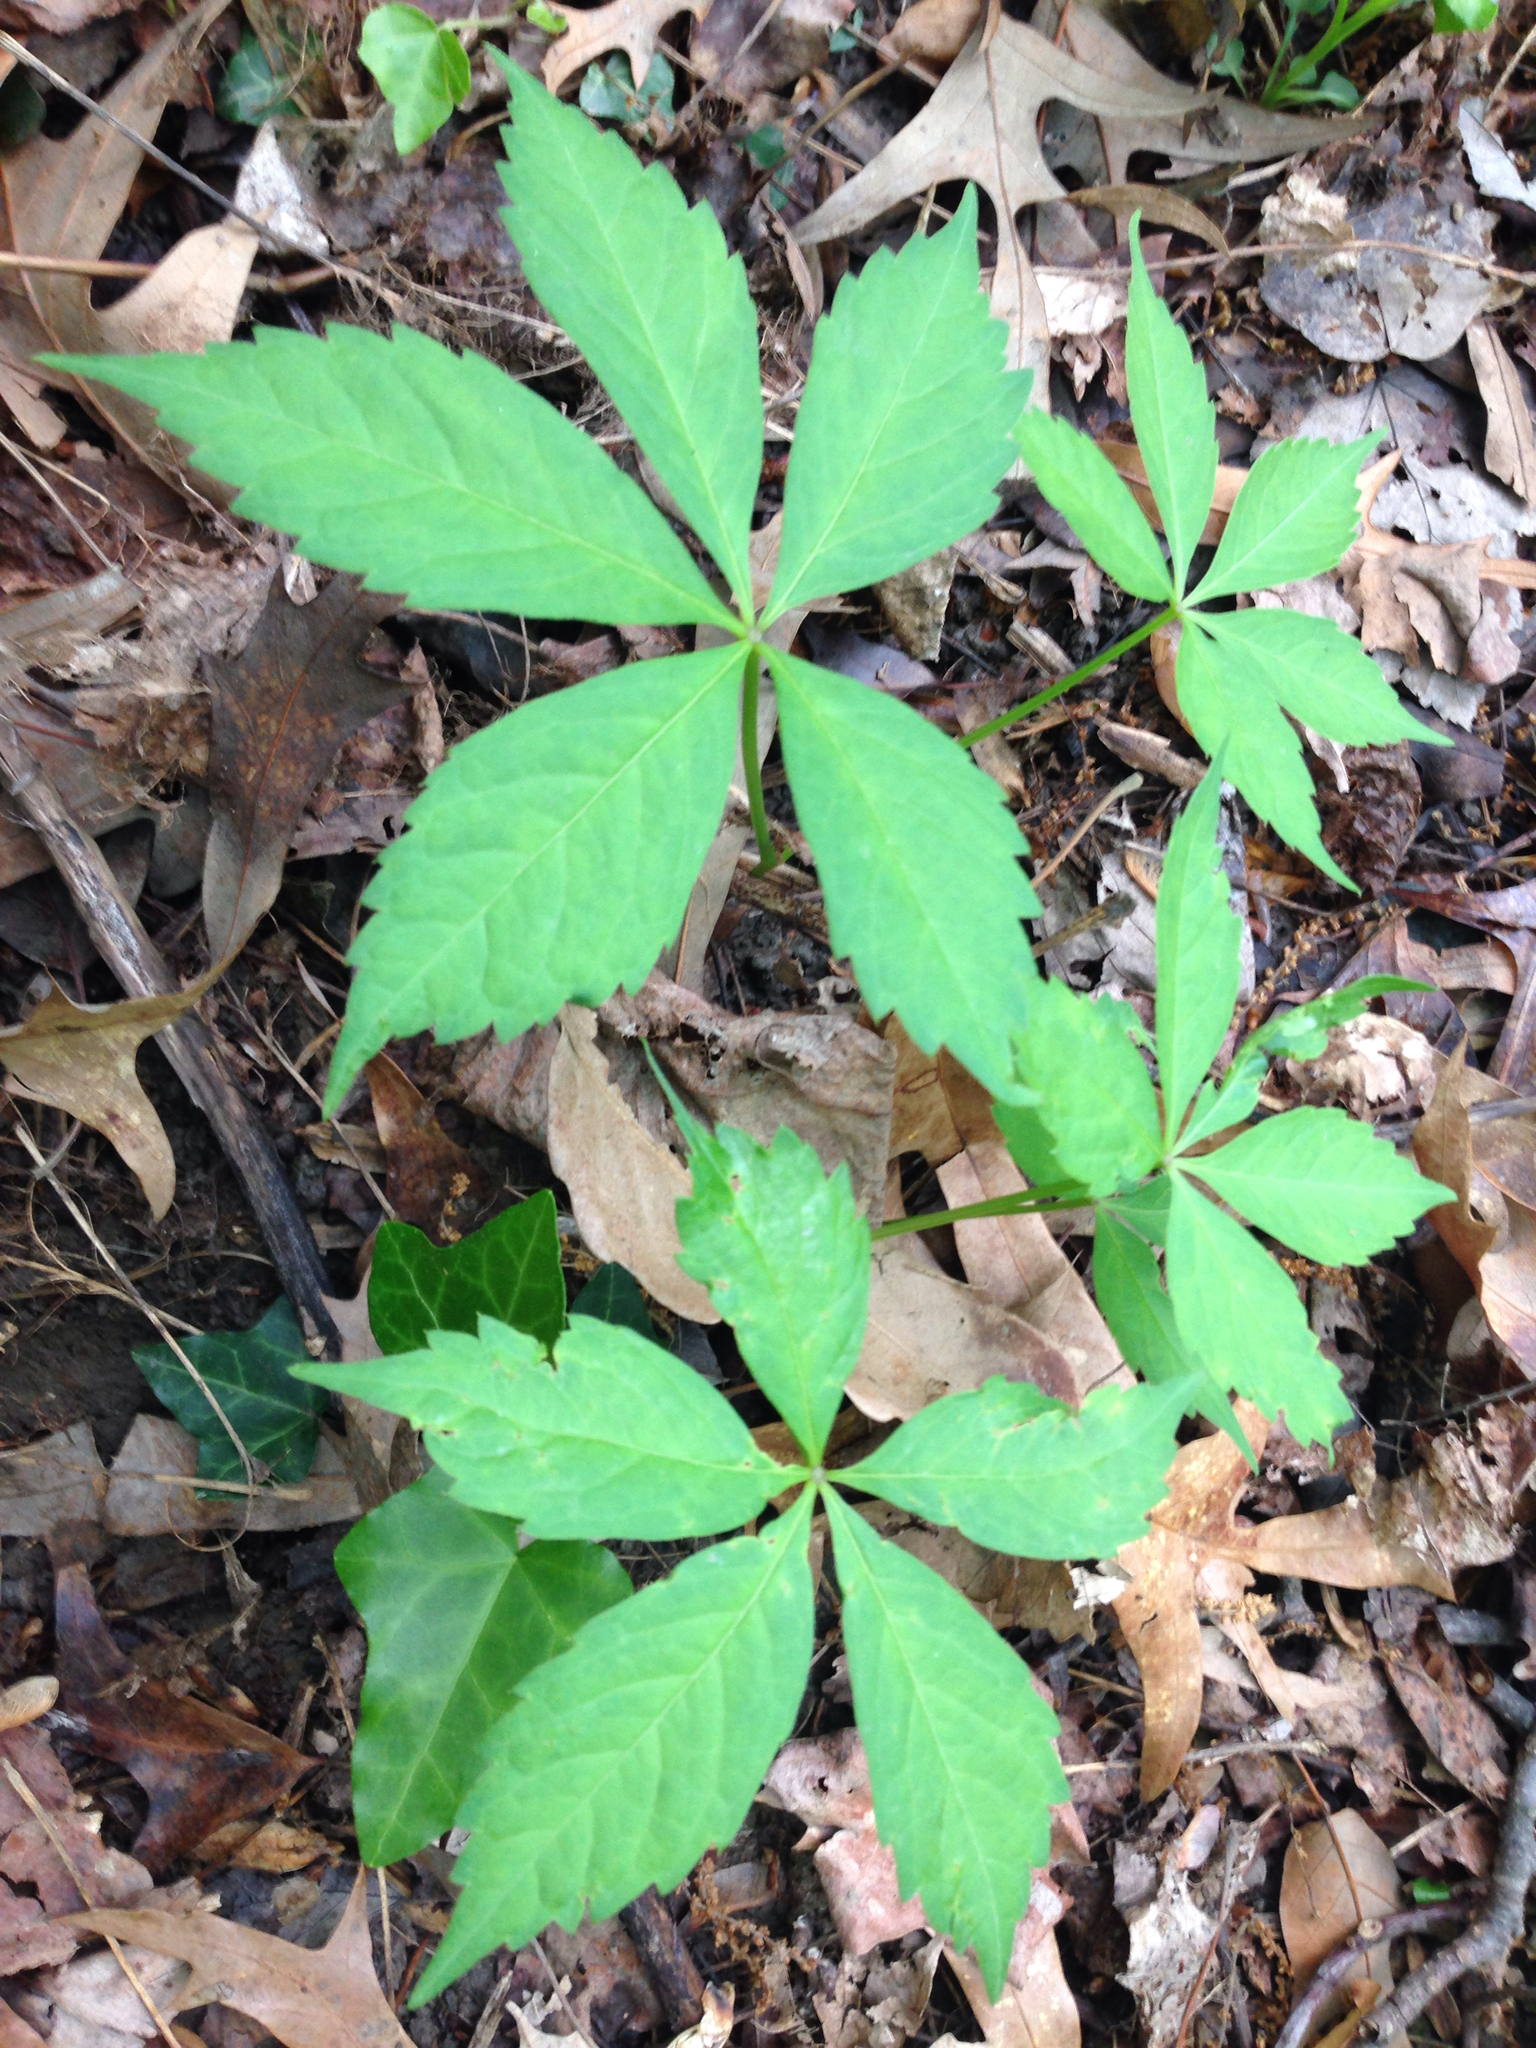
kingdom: Plantae
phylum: Tracheophyta
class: Magnoliopsida
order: Vitales
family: Vitaceae
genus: Parthenocissus
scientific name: Parthenocissus quinquefolia
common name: Virginia-creeper
